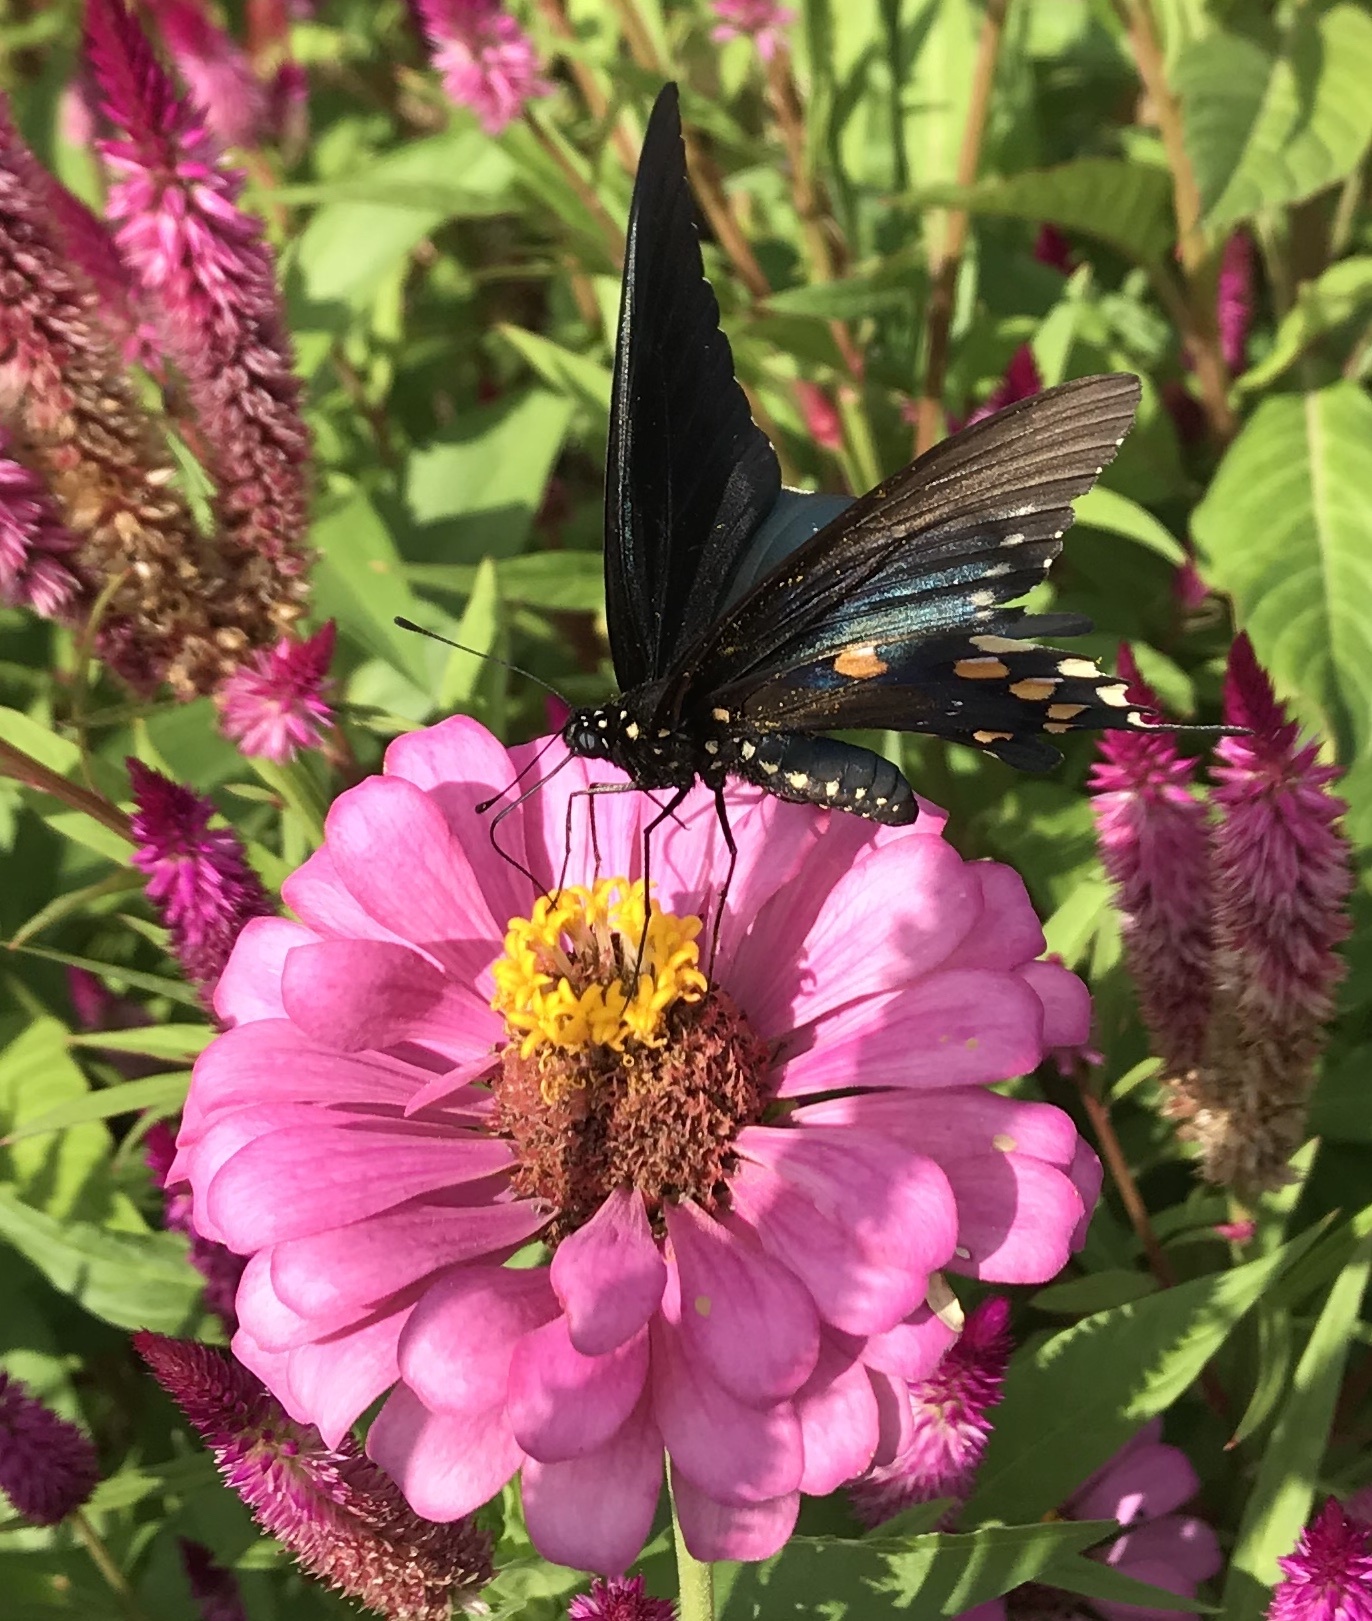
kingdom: Animalia
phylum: Arthropoda
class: Insecta
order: Lepidoptera
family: Papilionidae
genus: Battus
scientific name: Battus philenor
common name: Pipevine swallowtail
